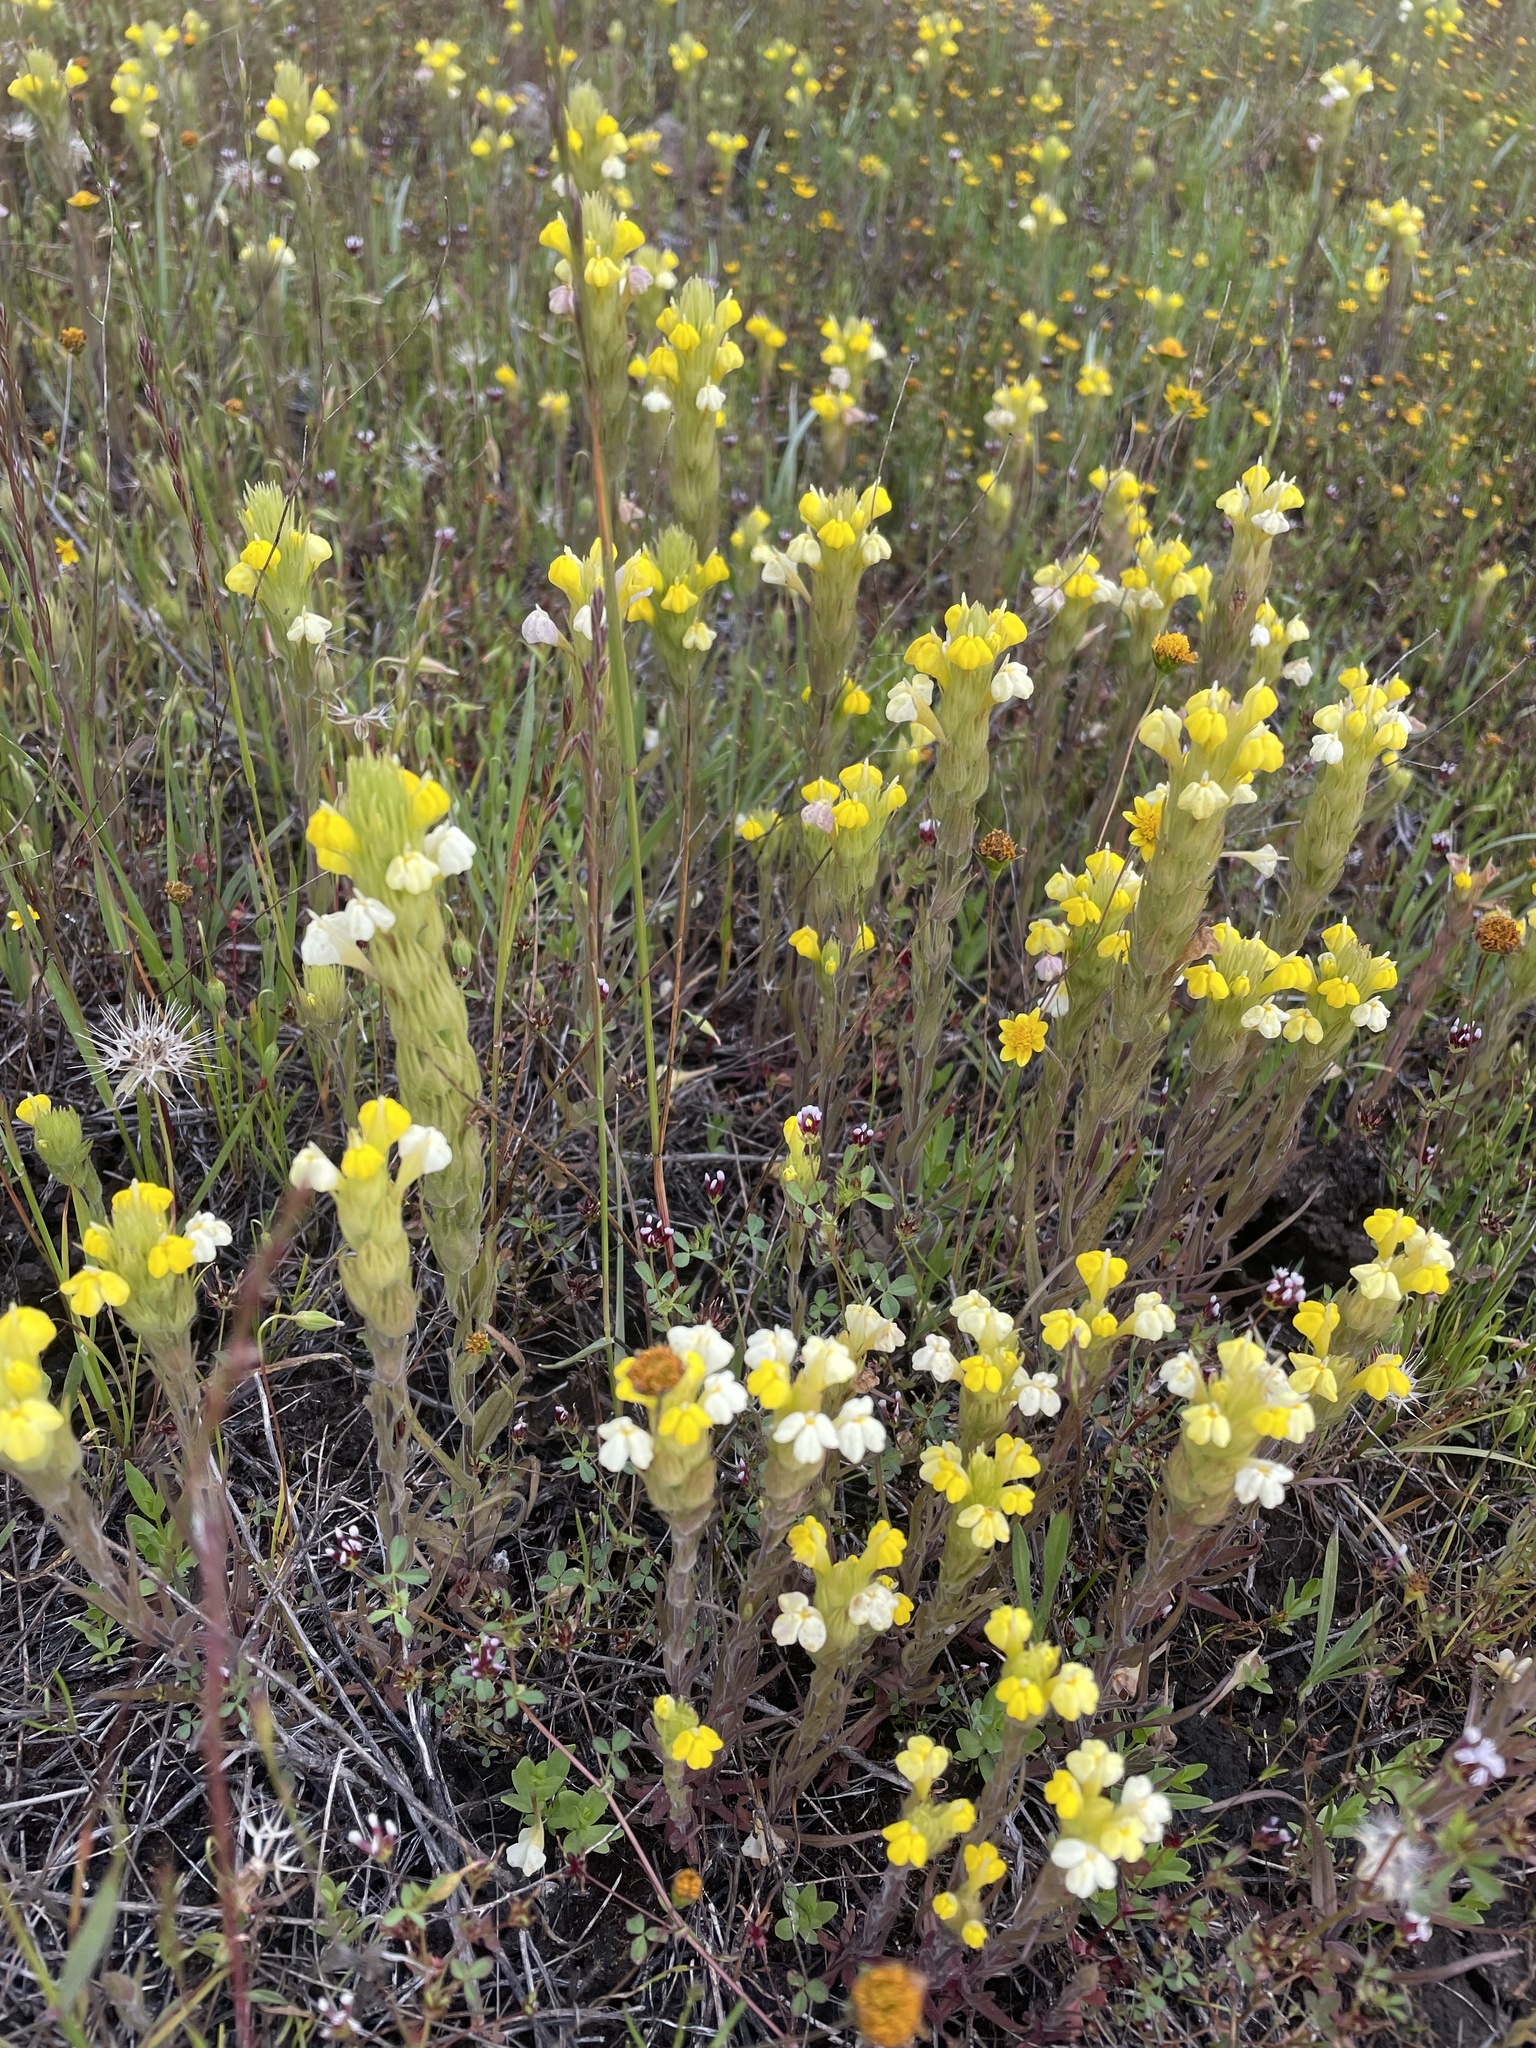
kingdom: Plantae
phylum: Tracheophyta
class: Magnoliopsida
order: Lamiales
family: Orobanchaceae
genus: Castilleja
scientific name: Castilleja rubicundula
